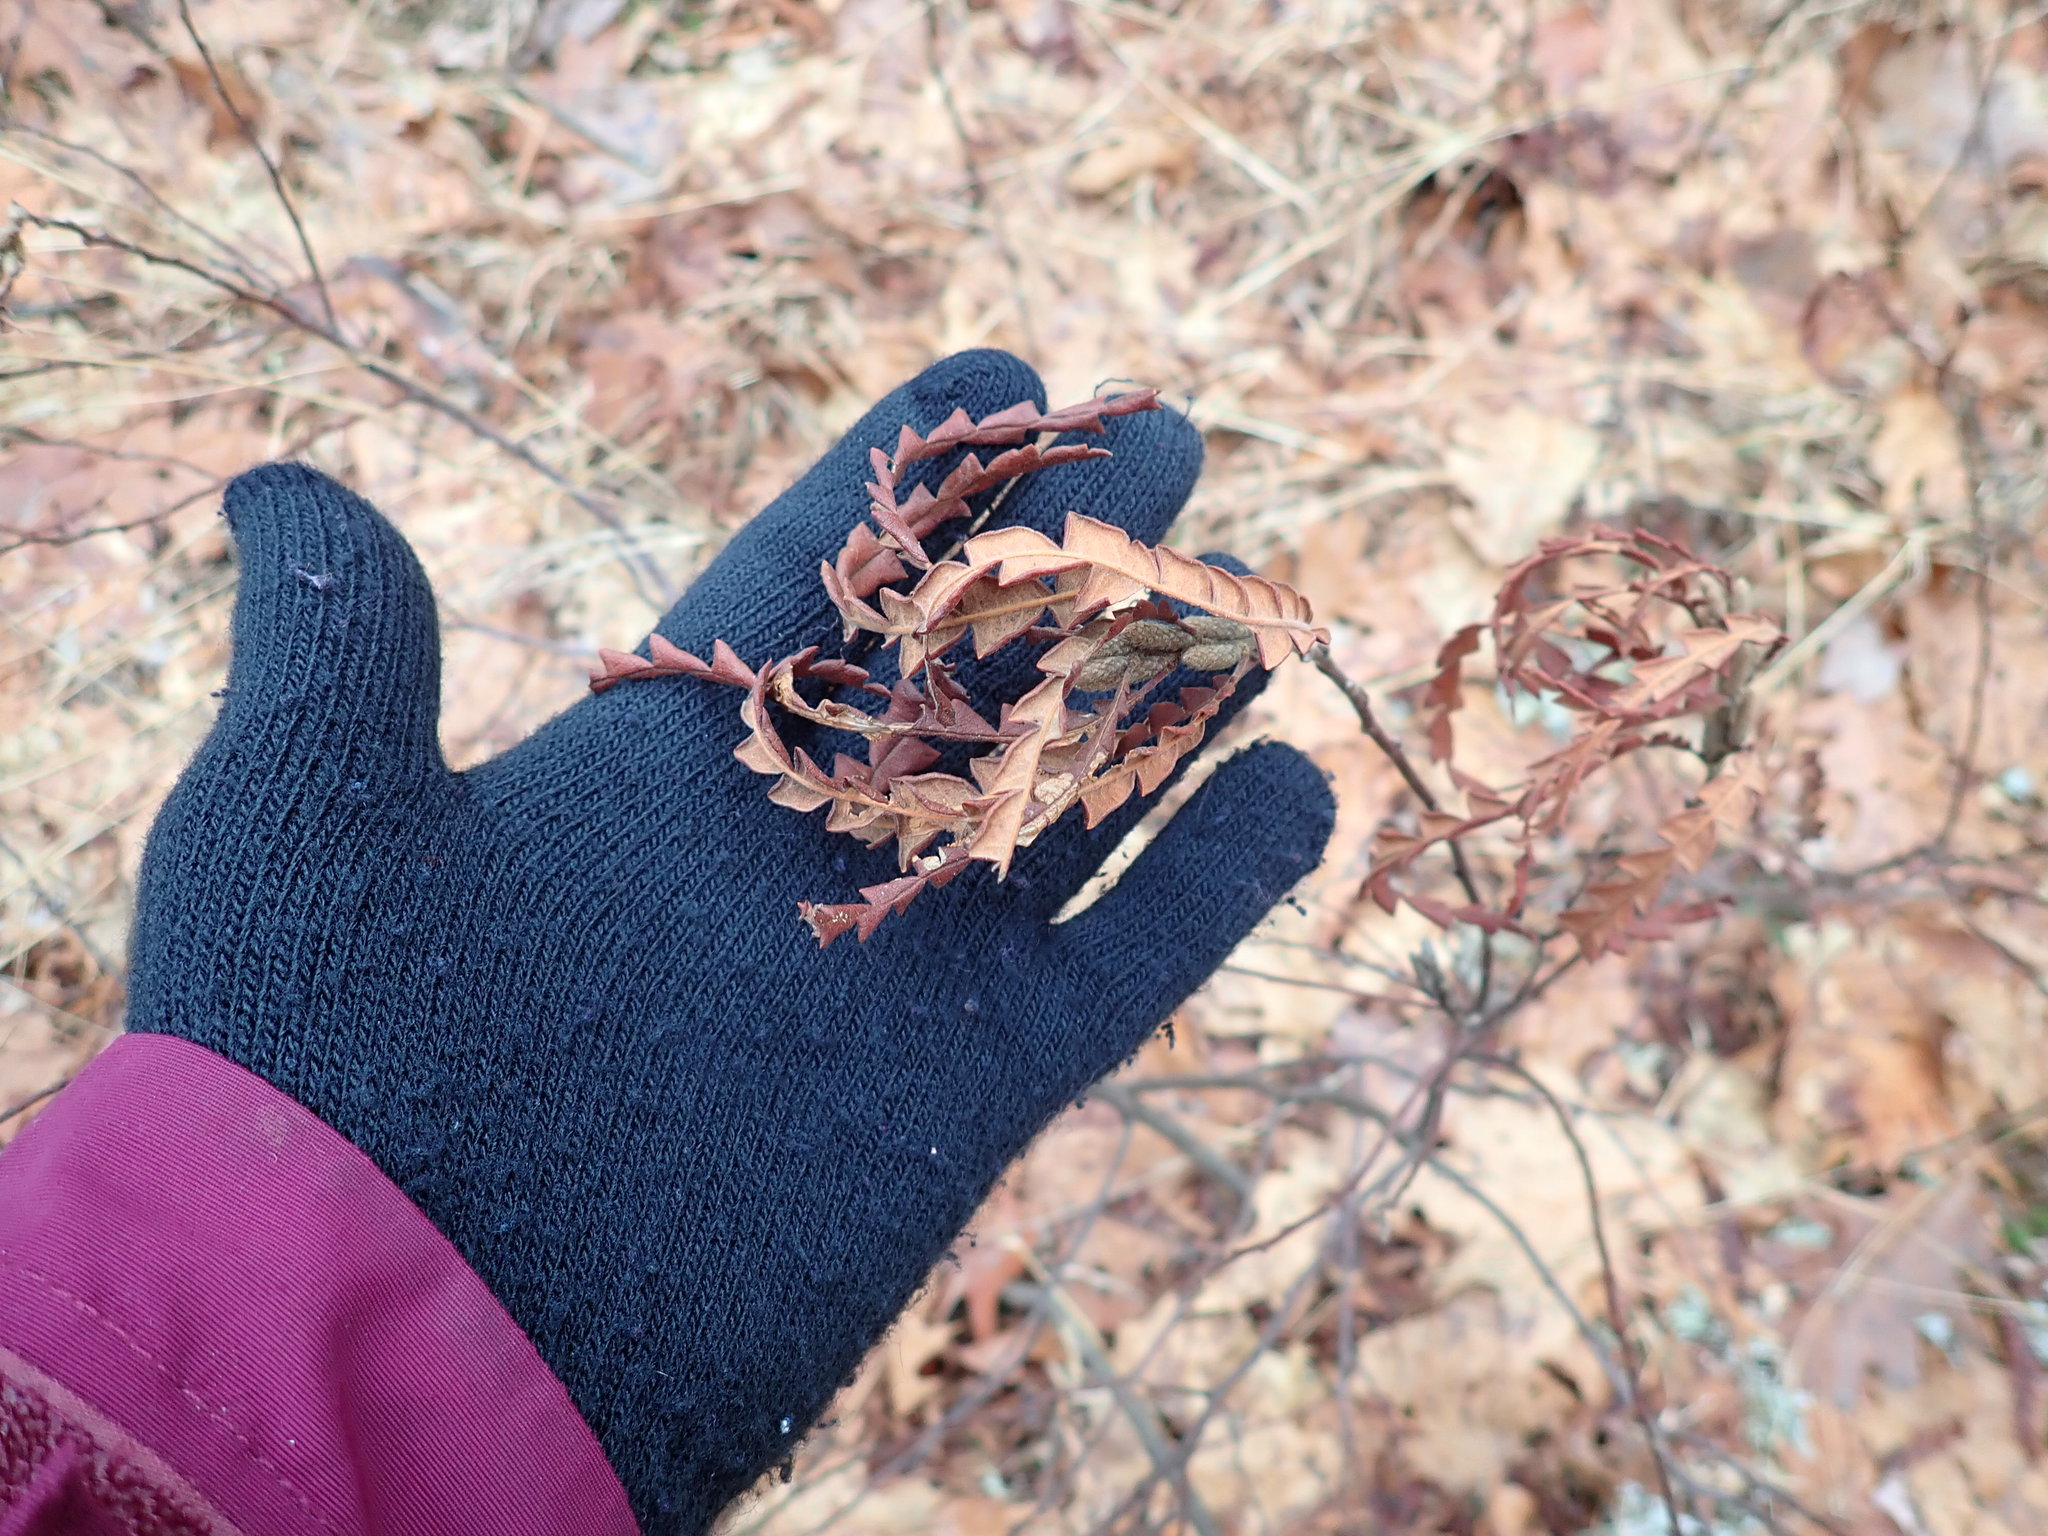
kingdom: Plantae
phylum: Tracheophyta
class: Magnoliopsida
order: Fagales
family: Myricaceae
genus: Comptonia
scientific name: Comptonia peregrina
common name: Sweet-fern
